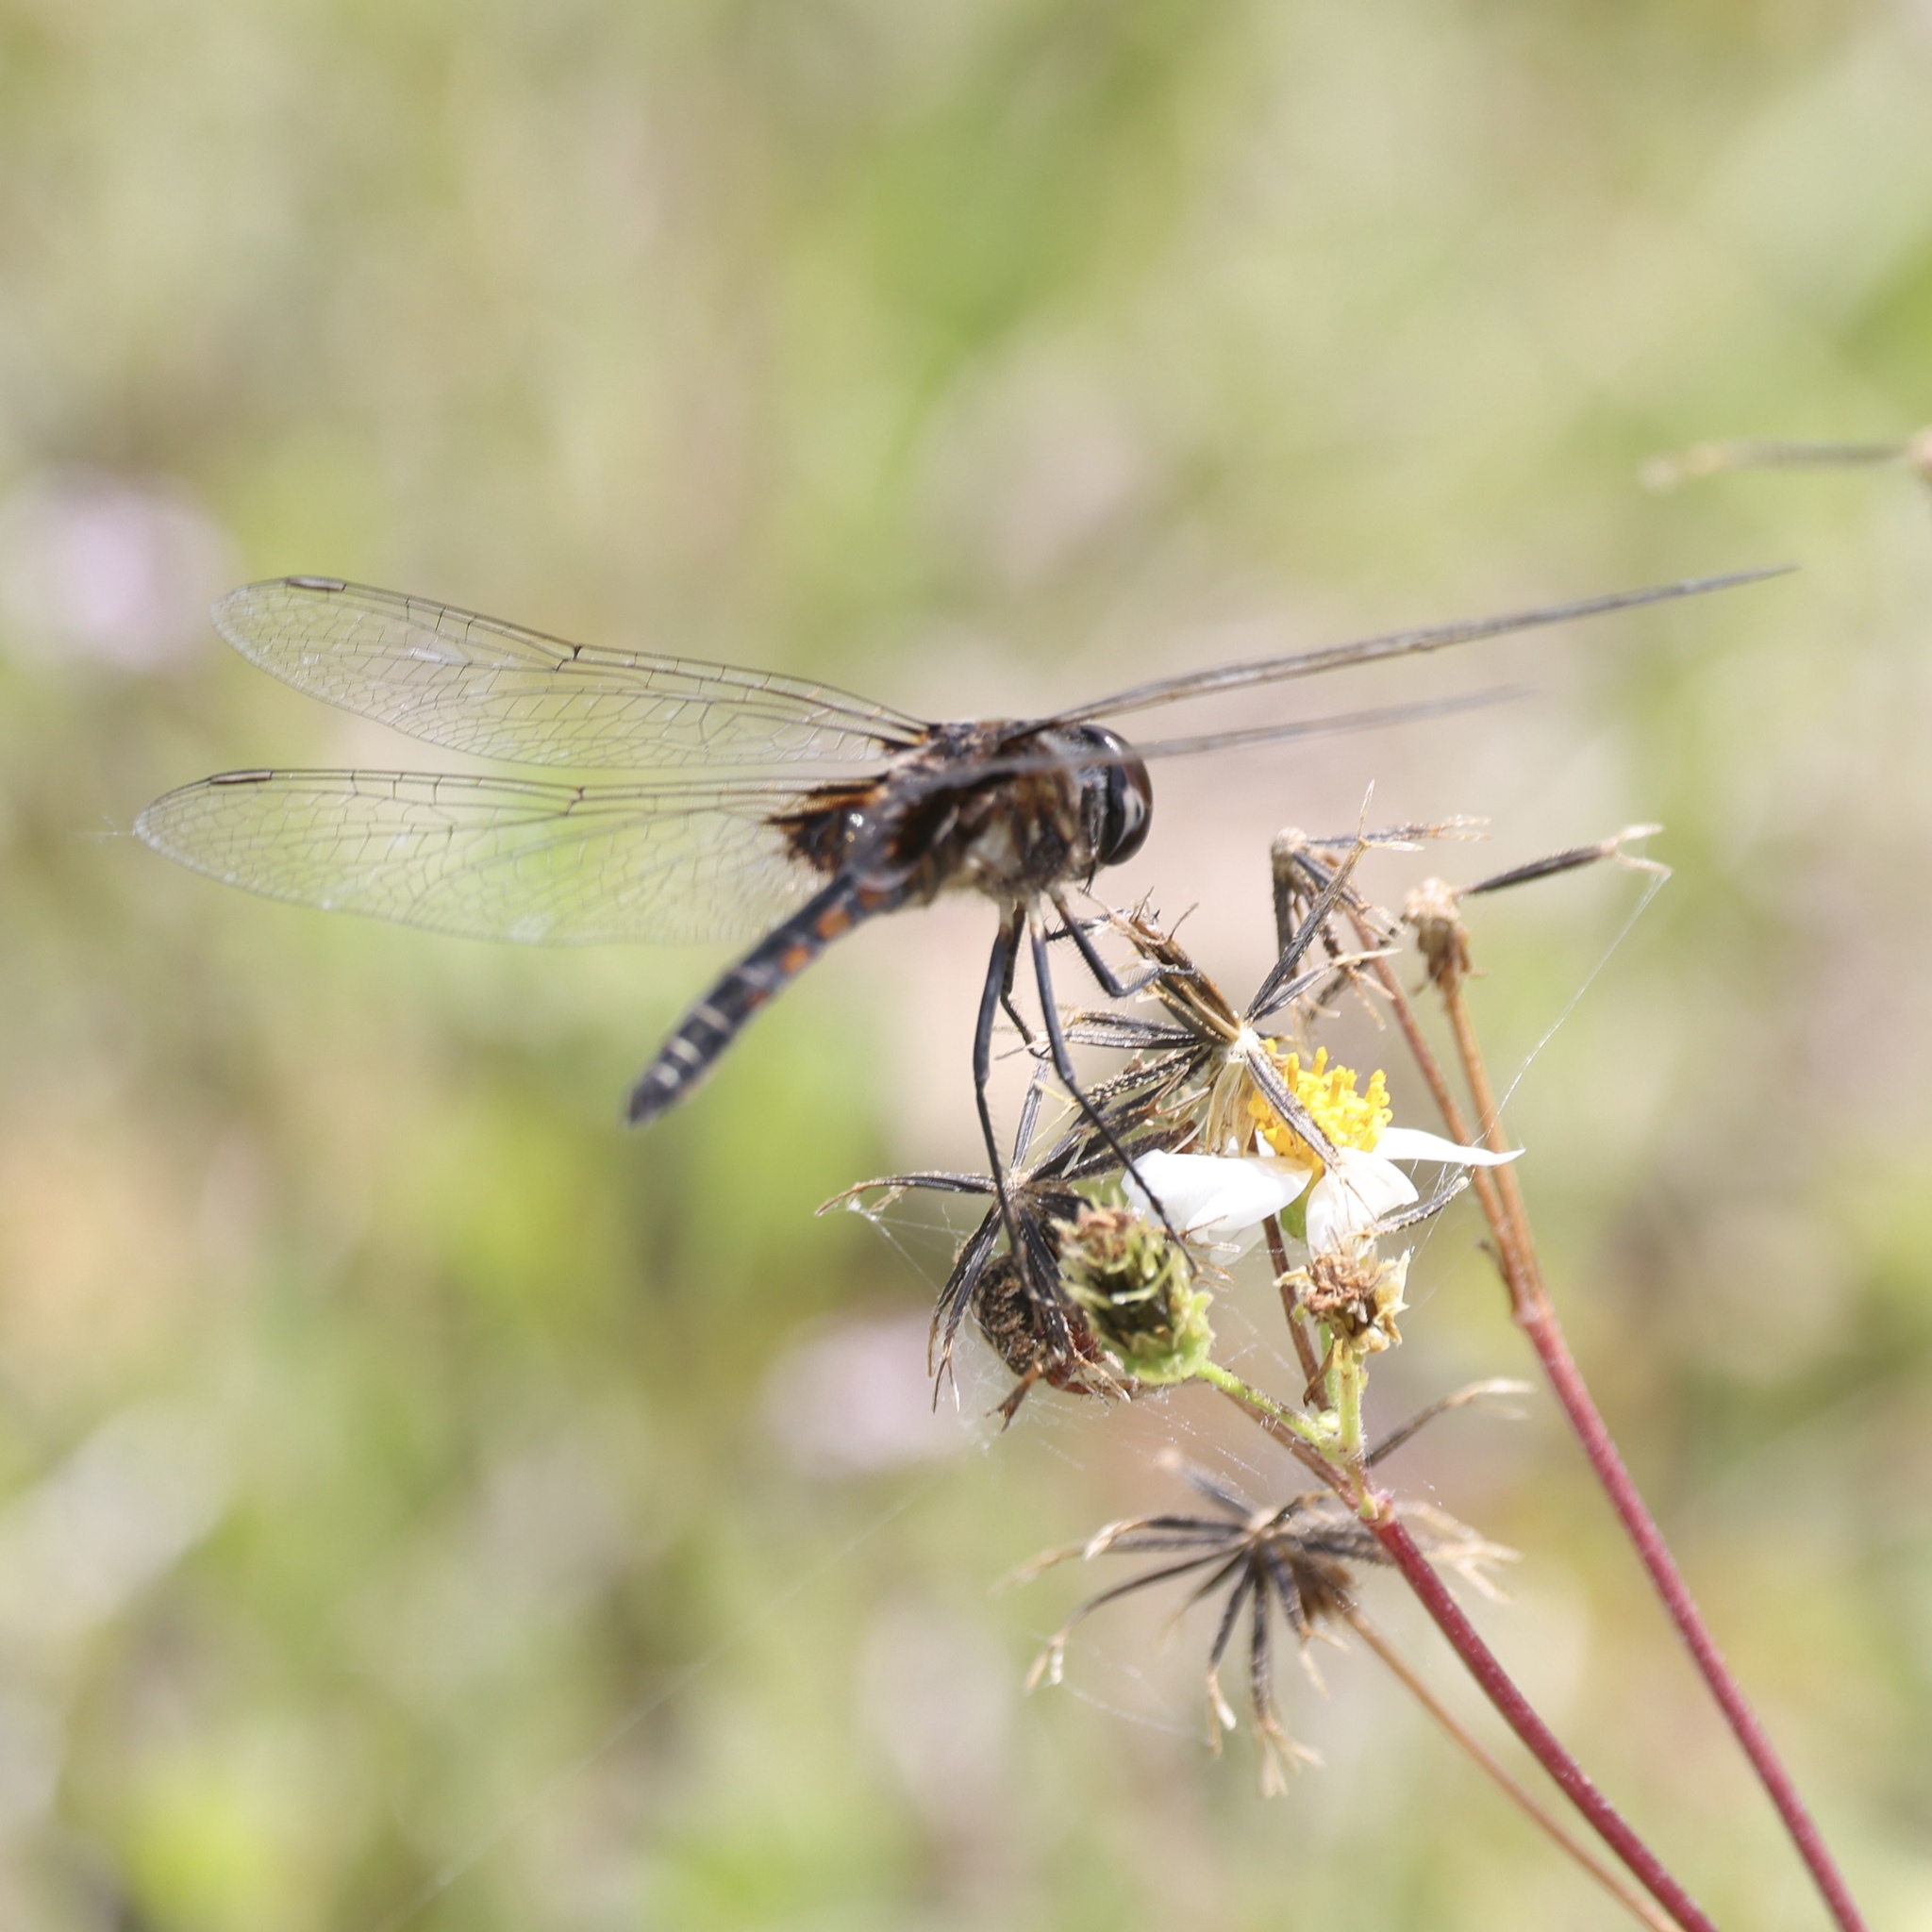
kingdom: Animalia
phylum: Arthropoda
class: Insecta
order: Odonata
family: Libellulidae
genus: Macrodiplax
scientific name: Macrodiplax balteata
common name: Marl pennant
